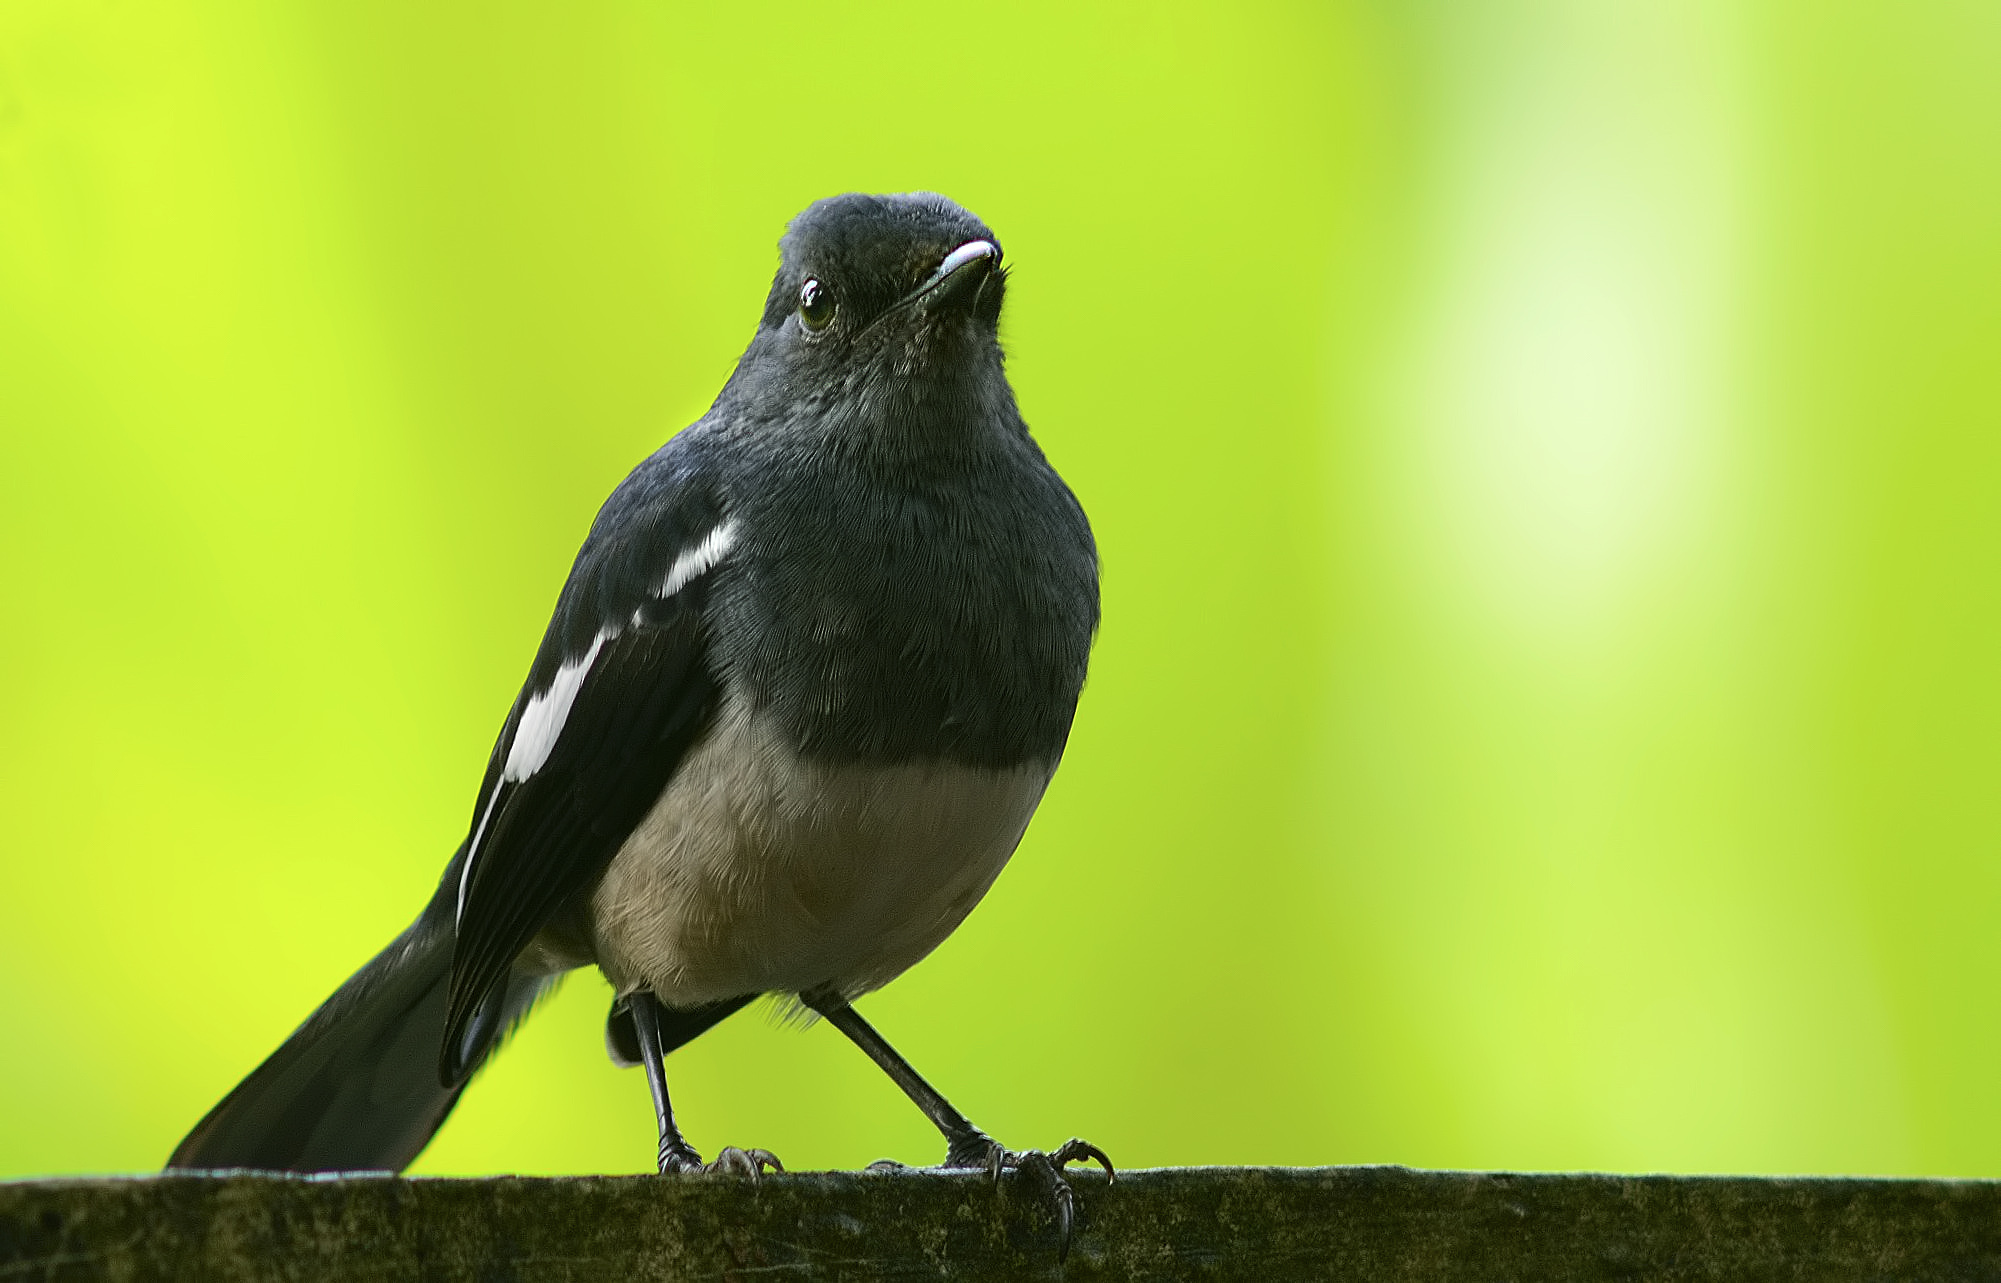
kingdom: Animalia
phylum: Chordata
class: Aves
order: Passeriformes
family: Muscicapidae
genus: Copsychus
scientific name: Copsychus saularis
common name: Oriental magpie-robin
